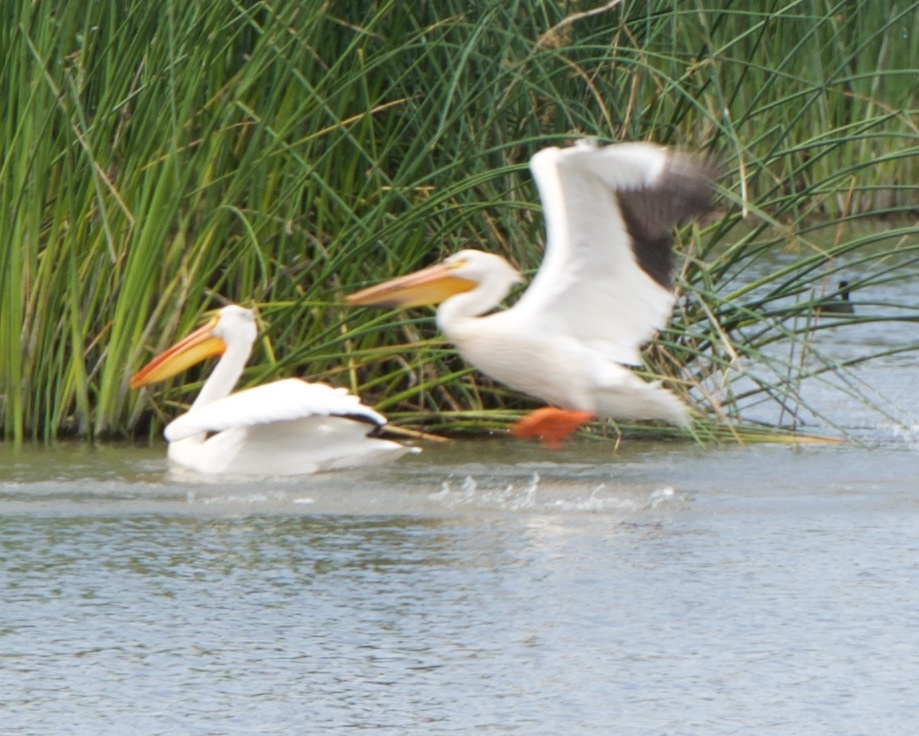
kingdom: Animalia
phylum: Chordata
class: Aves
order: Pelecaniformes
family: Pelecanidae
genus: Pelecanus
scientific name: Pelecanus erythrorhynchos
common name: American white pelican
